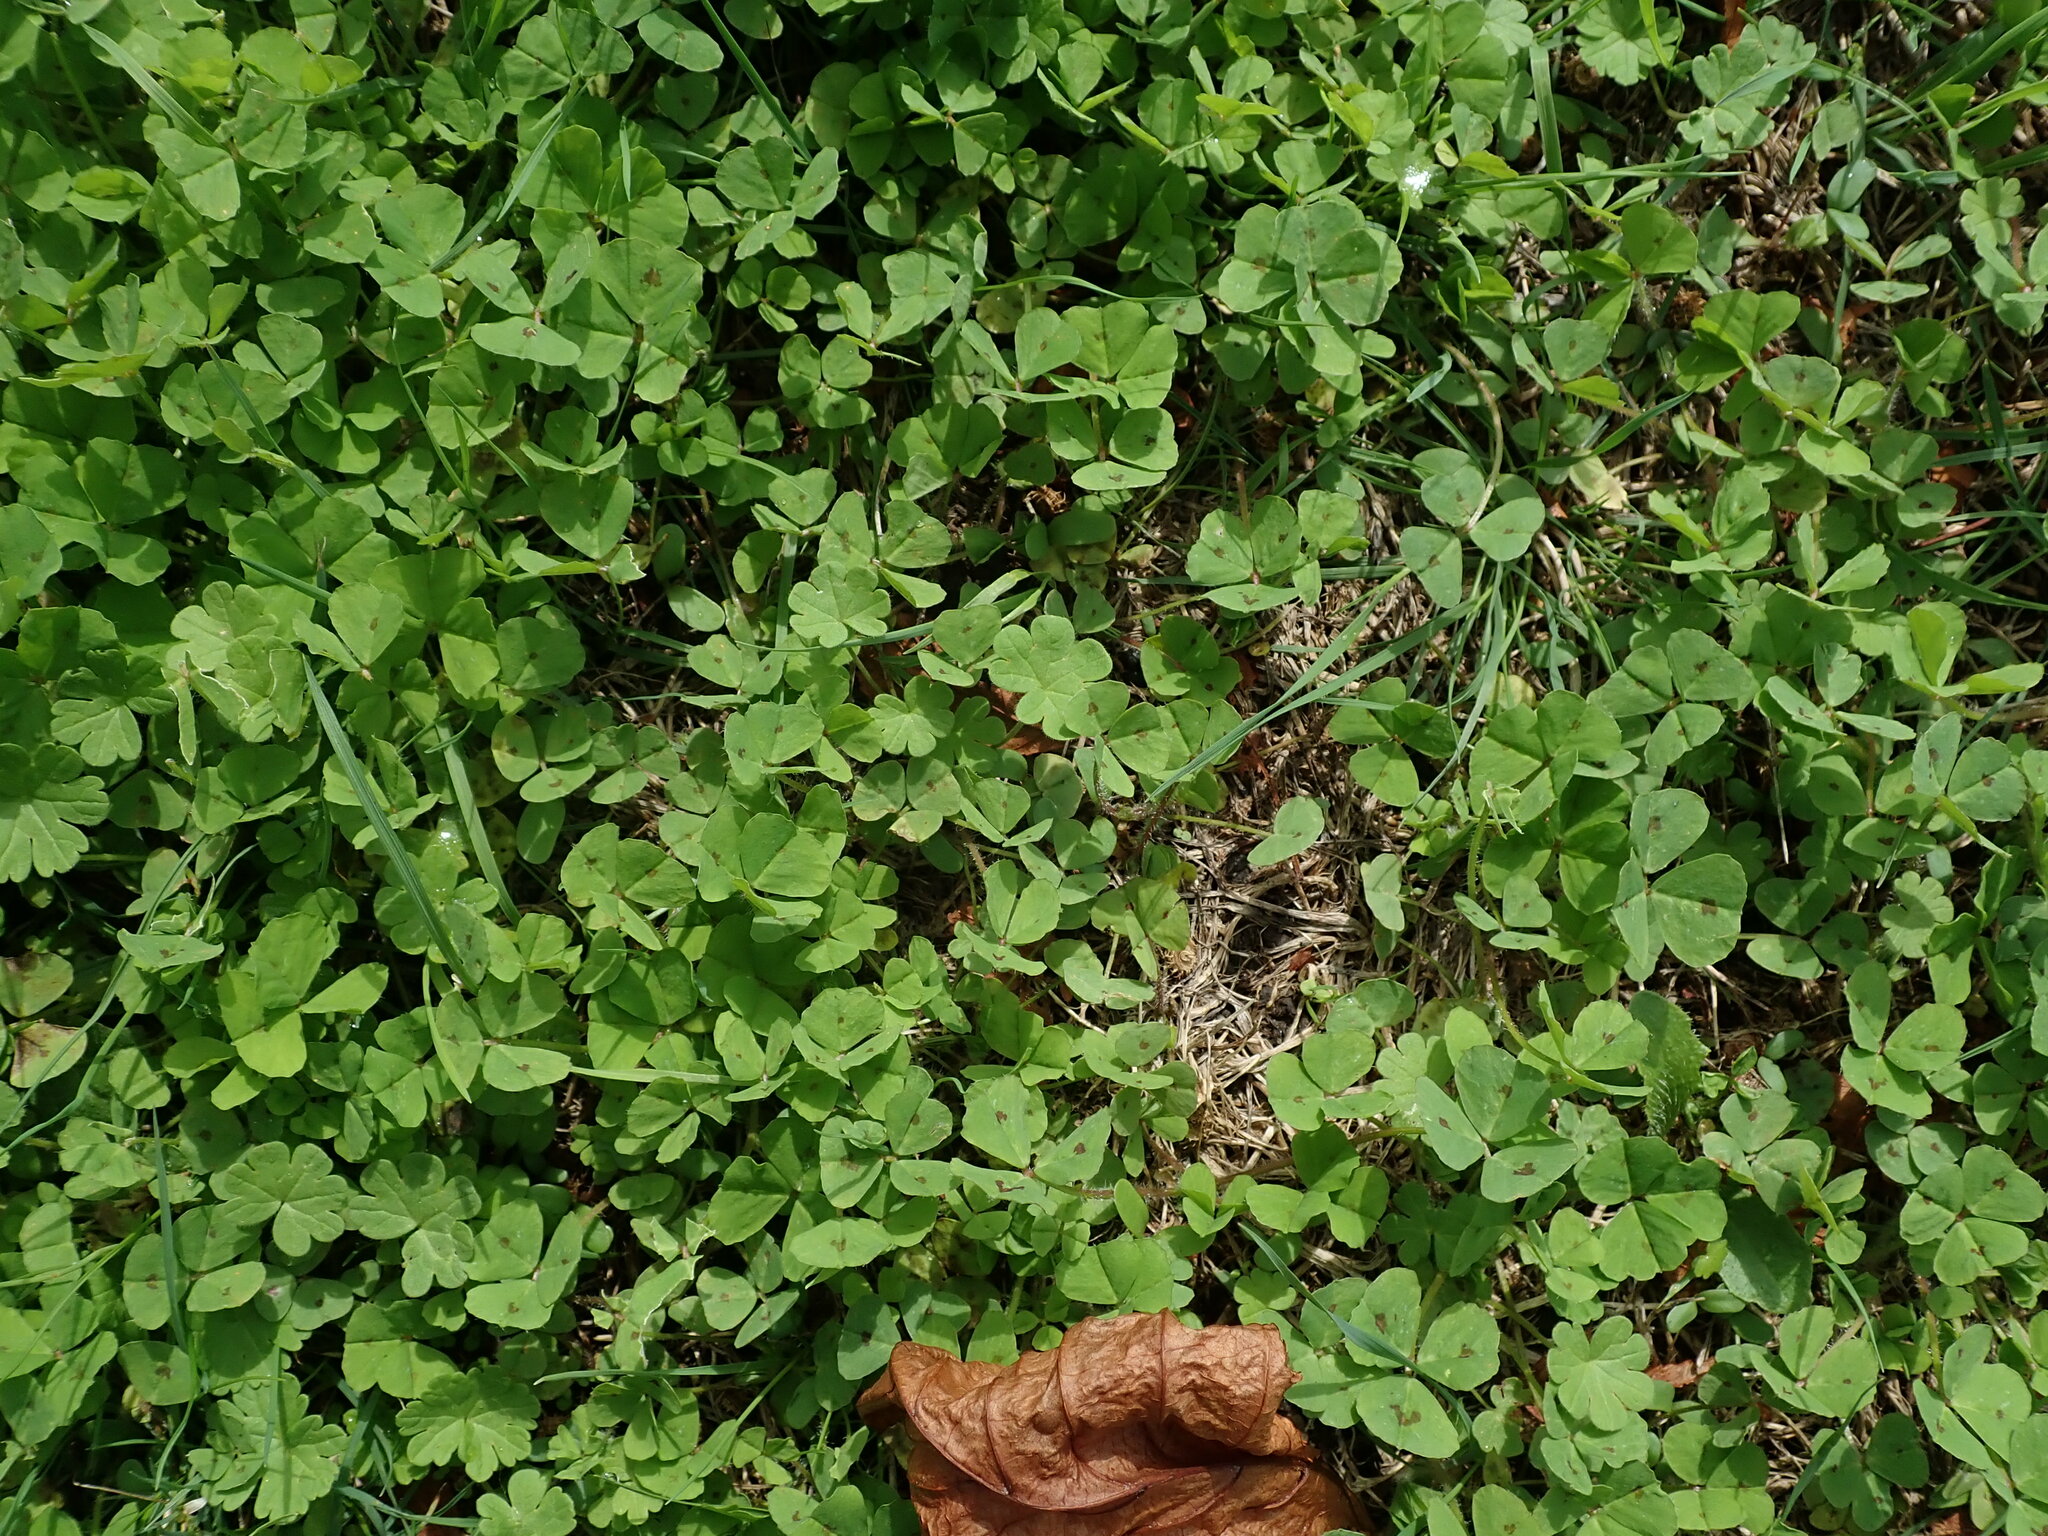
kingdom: Plantae
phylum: Tracheophyta
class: Magnoliopsida
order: Fabales
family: Fabaceae
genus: Medicago
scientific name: Medicago arabica
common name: Spotted medick
